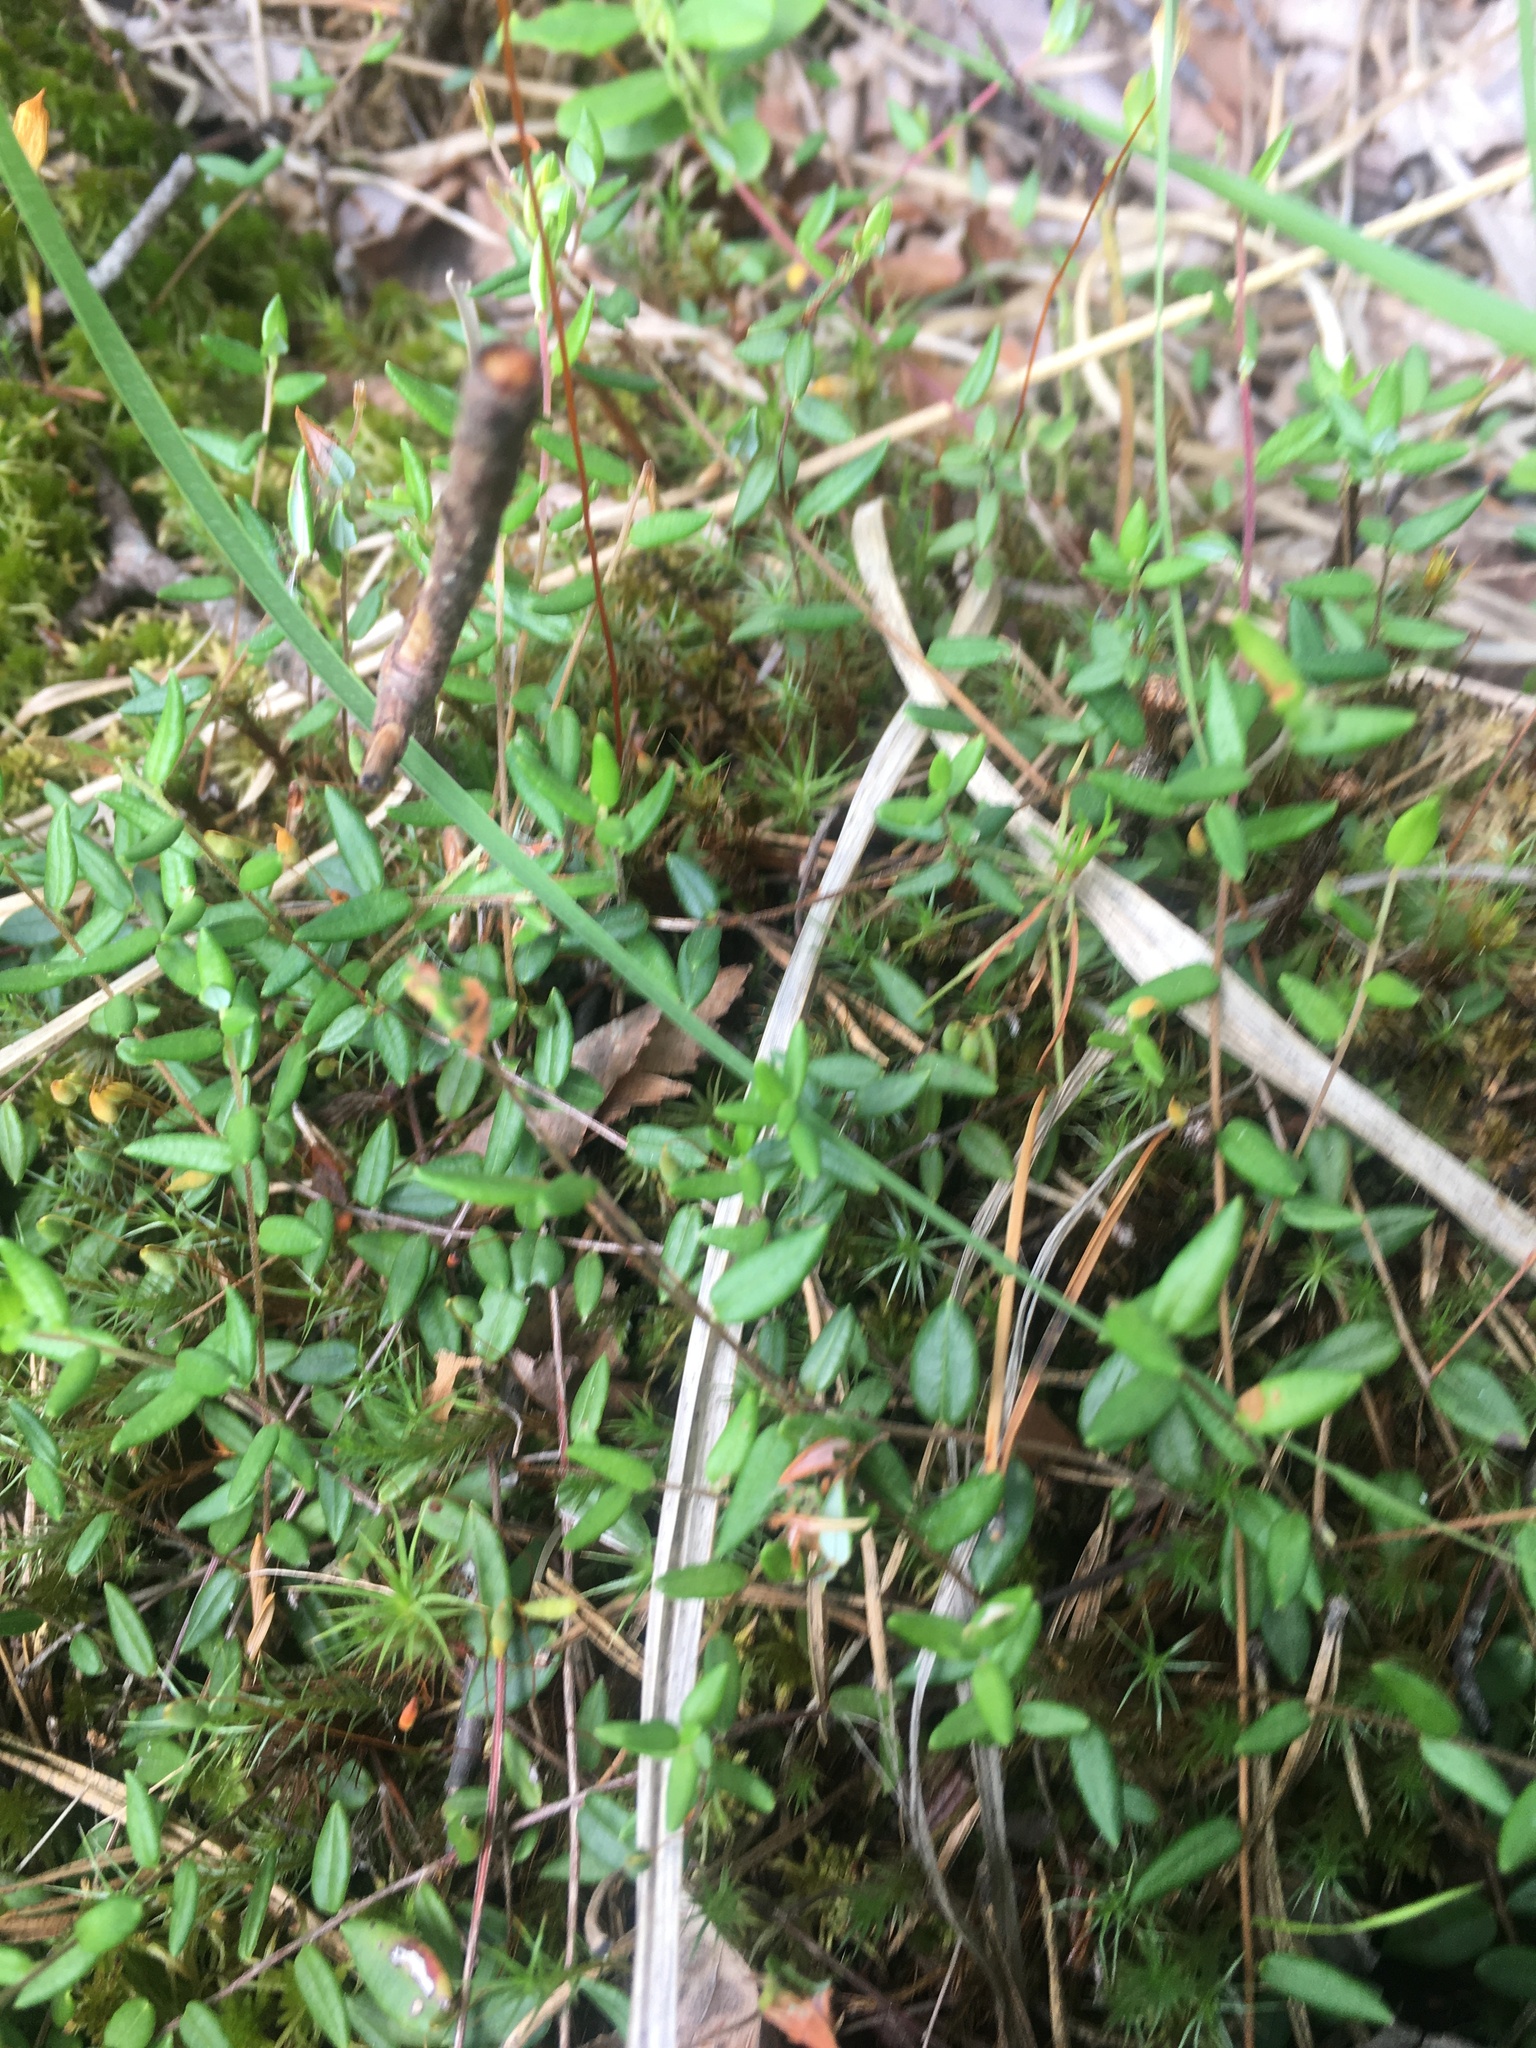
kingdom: Plantae
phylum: Tracheophyta
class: Magnoliopsida
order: Ericales
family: Ericaceae
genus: Vaccinium
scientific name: Vaccinium oxycoccos
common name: Cranberry
